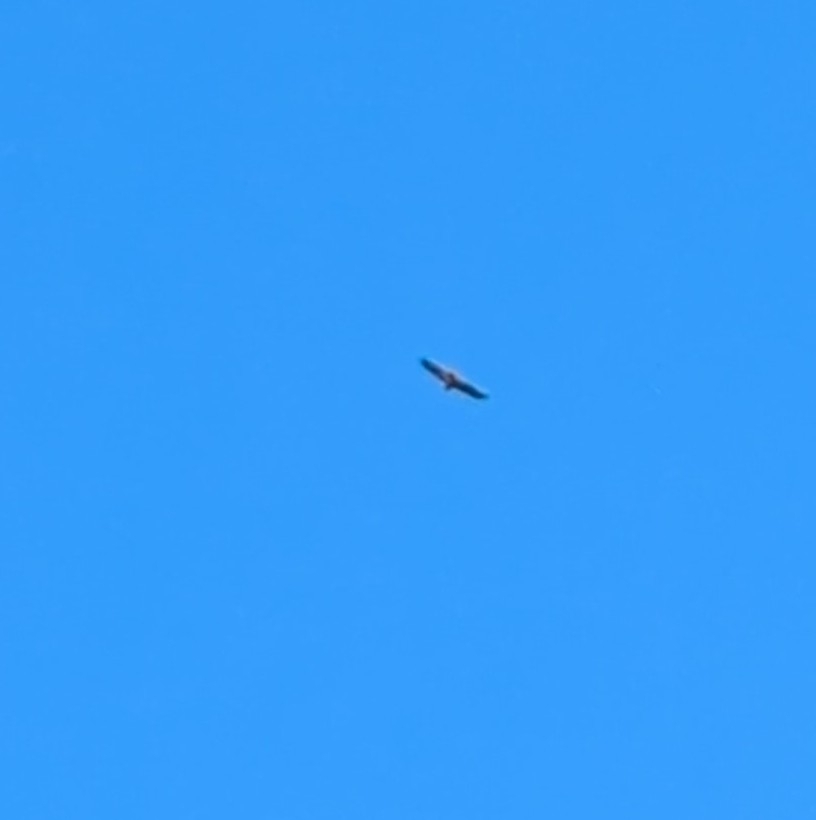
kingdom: Animalia
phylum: Chordata
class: Aves
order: Accipitriformes
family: Accipitridae
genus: Buteo
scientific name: Buteo jamaicensis
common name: Red-tailed hawk
